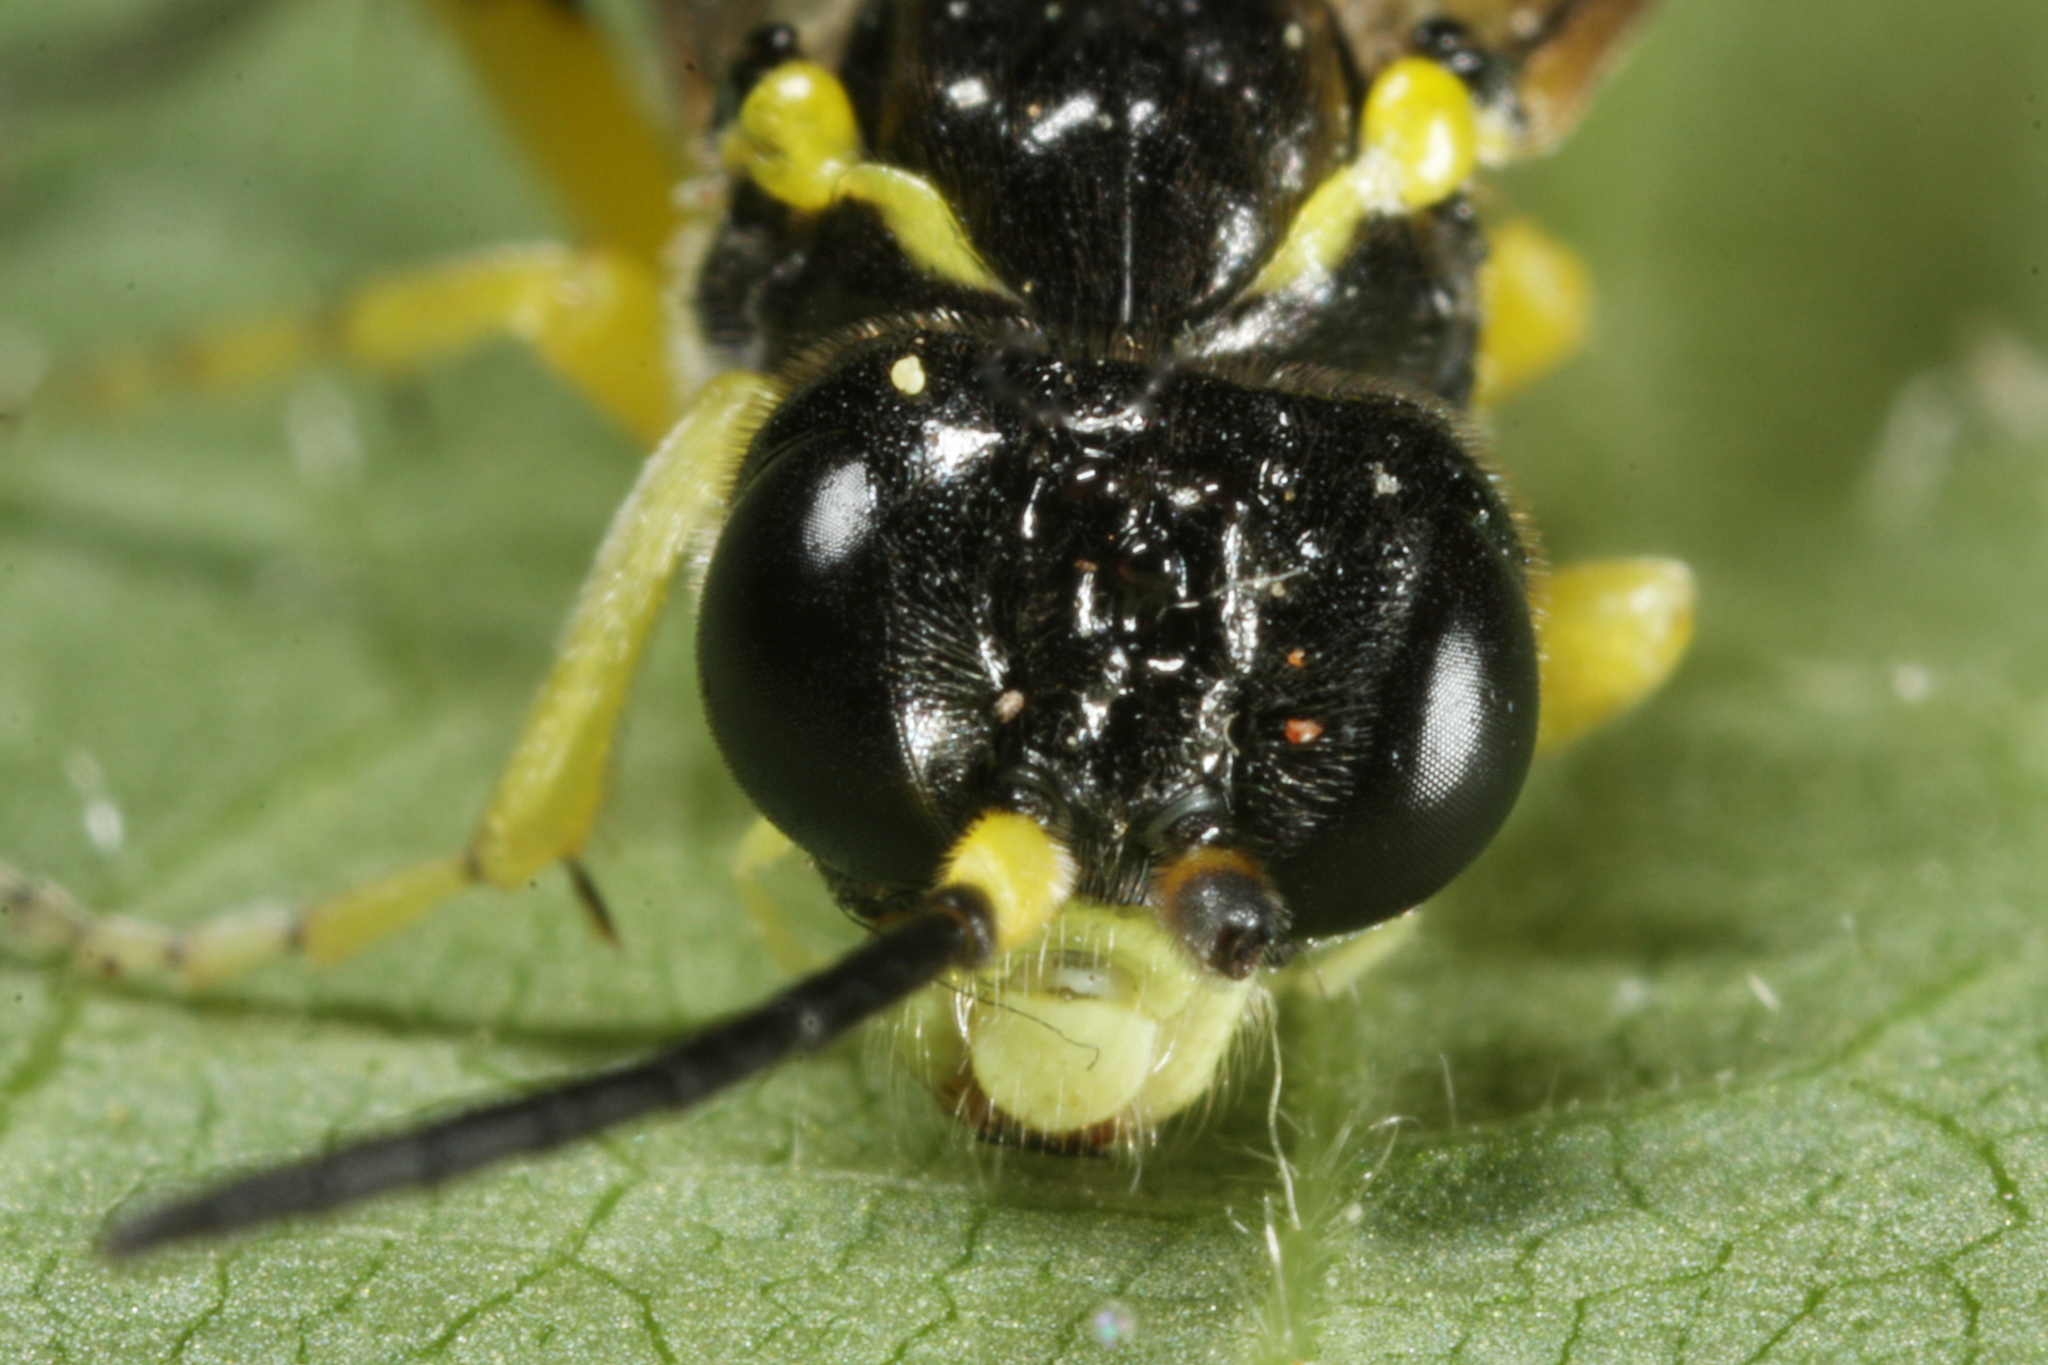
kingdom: Animalia
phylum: Arthropoda
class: Insecta
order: Hymenoptera
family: Tenthredinidae
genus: Tenthredo
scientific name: Tenthredo zonula
